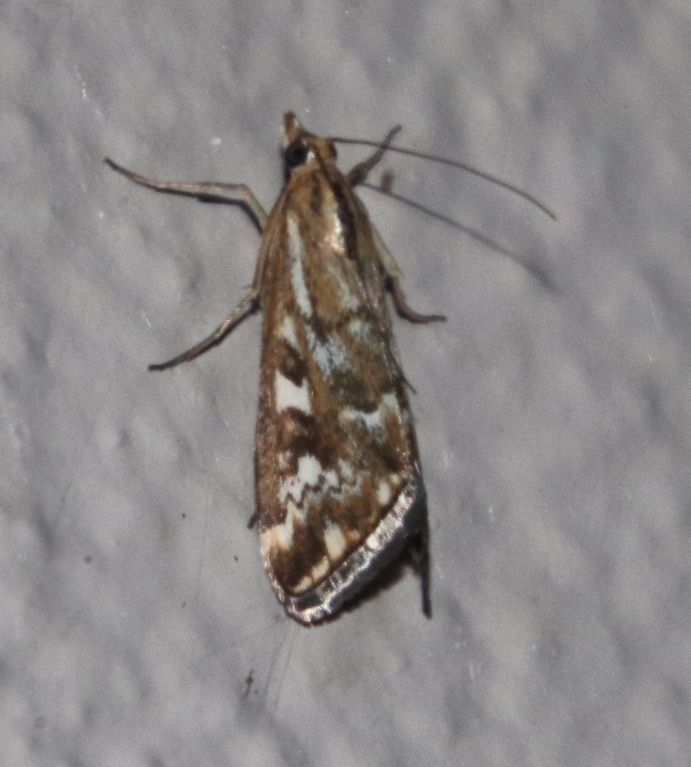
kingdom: Animalia
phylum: Arthropoda
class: Insecta
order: Lepidoptera
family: Crambidae
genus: Loxostege
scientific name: Loxostege frustalis
